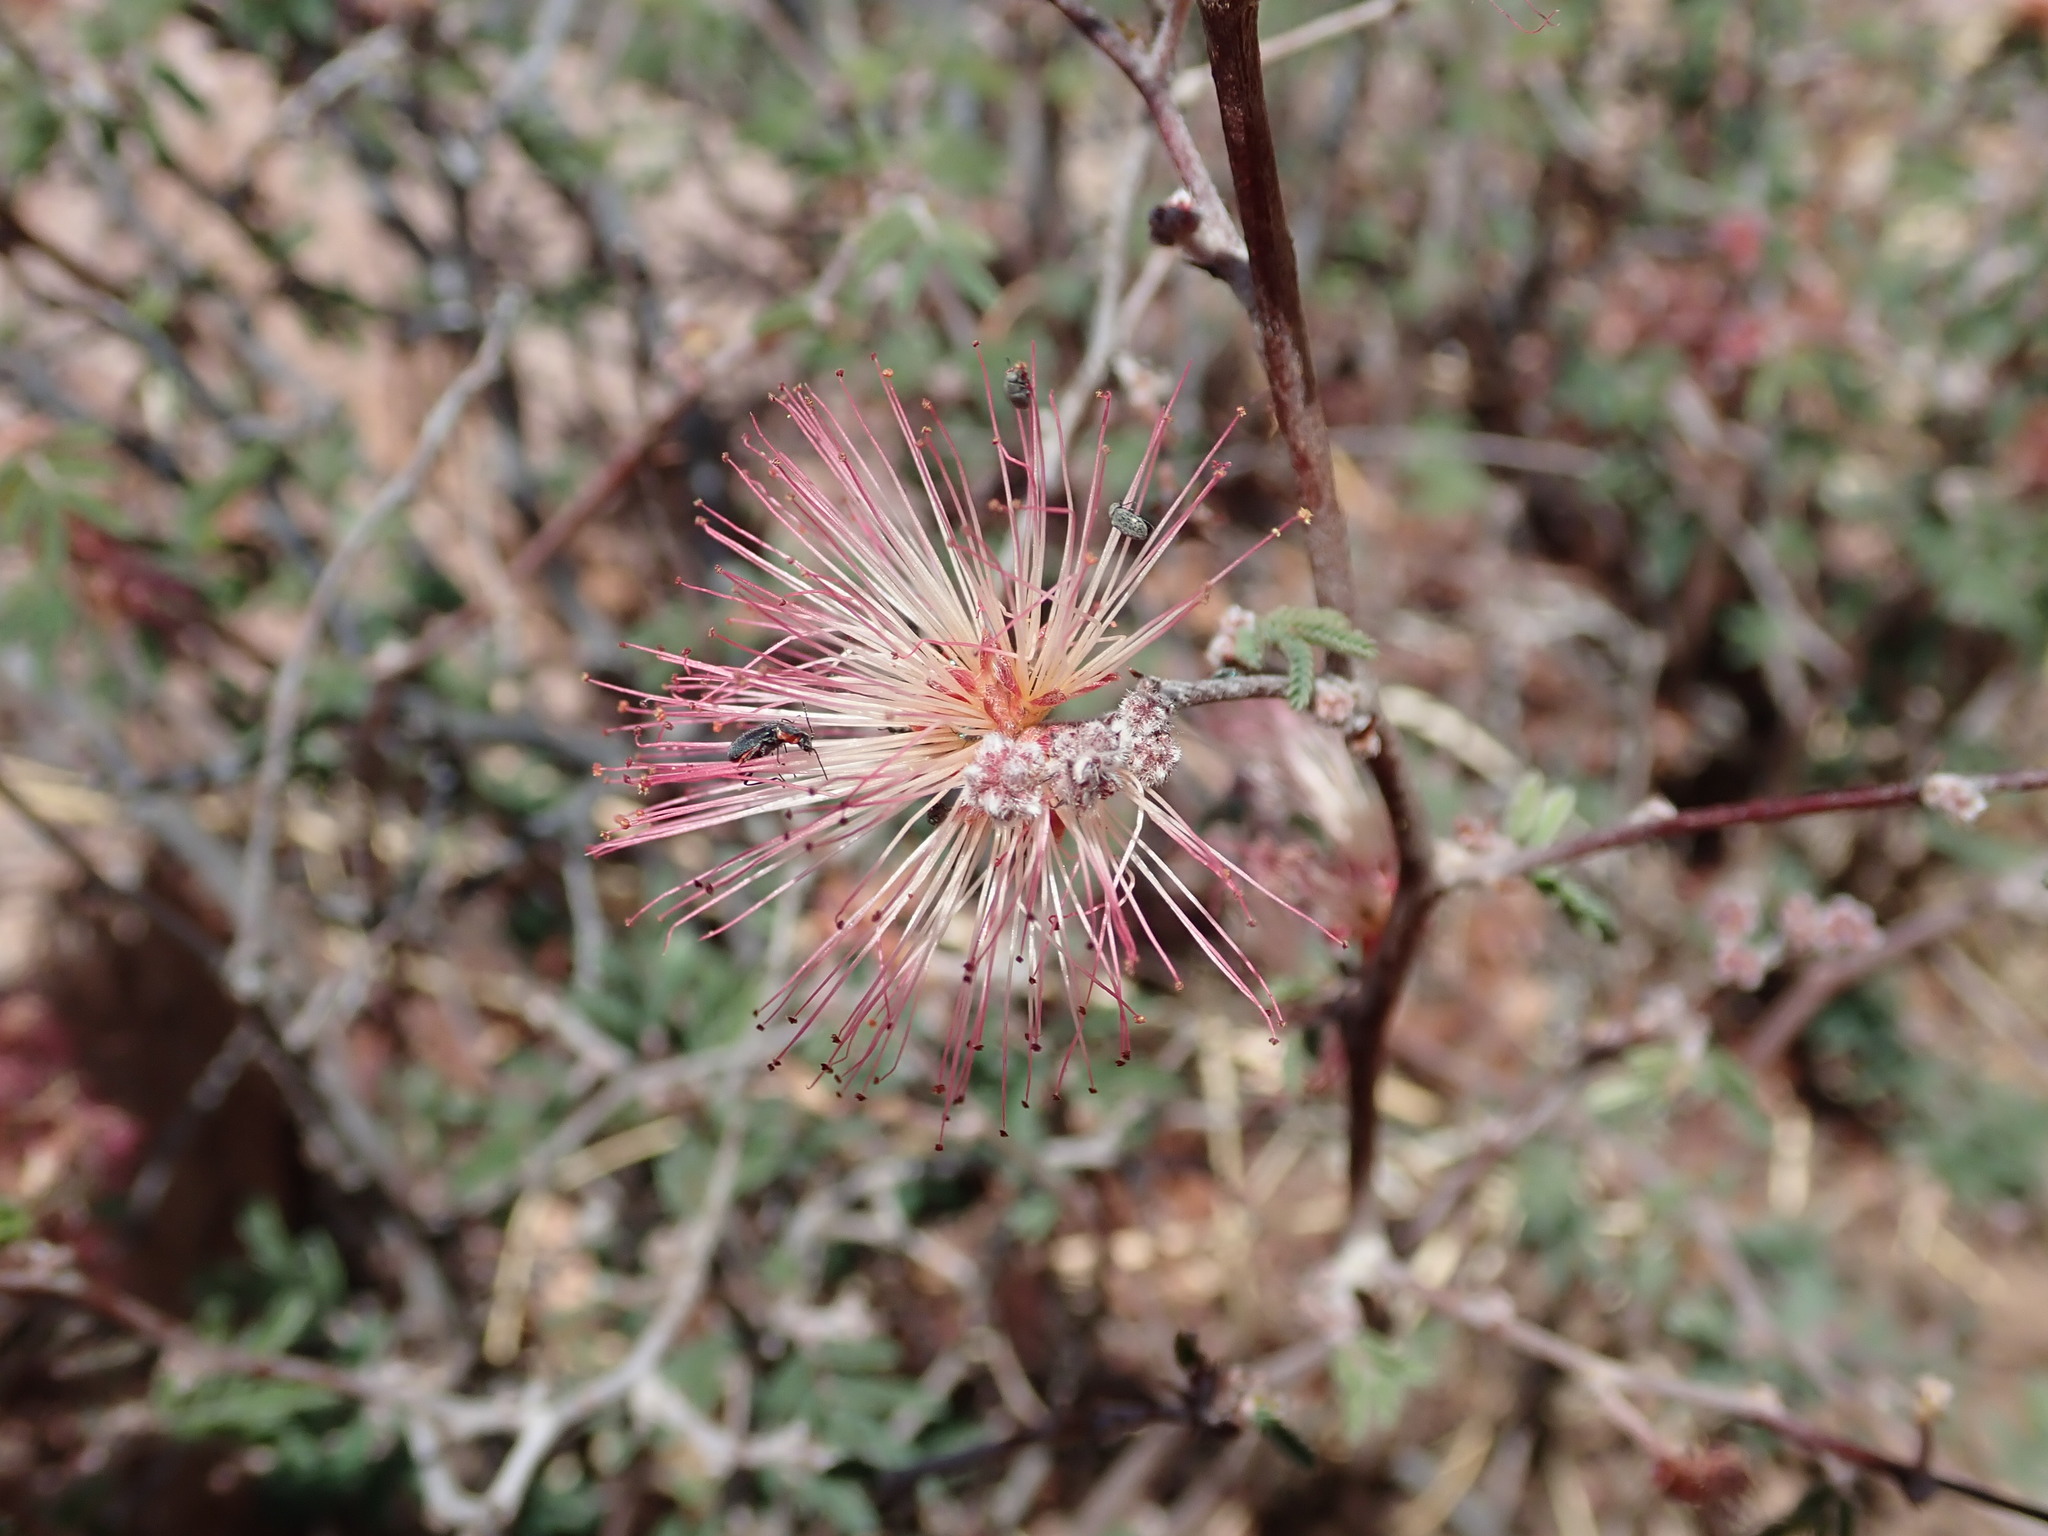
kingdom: Plantae
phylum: Tracheophyta
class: Magnoliopsida
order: Fabales
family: Fabaceae
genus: Calliandra
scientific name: Calliandra eriophylla
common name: Fairy-duster
